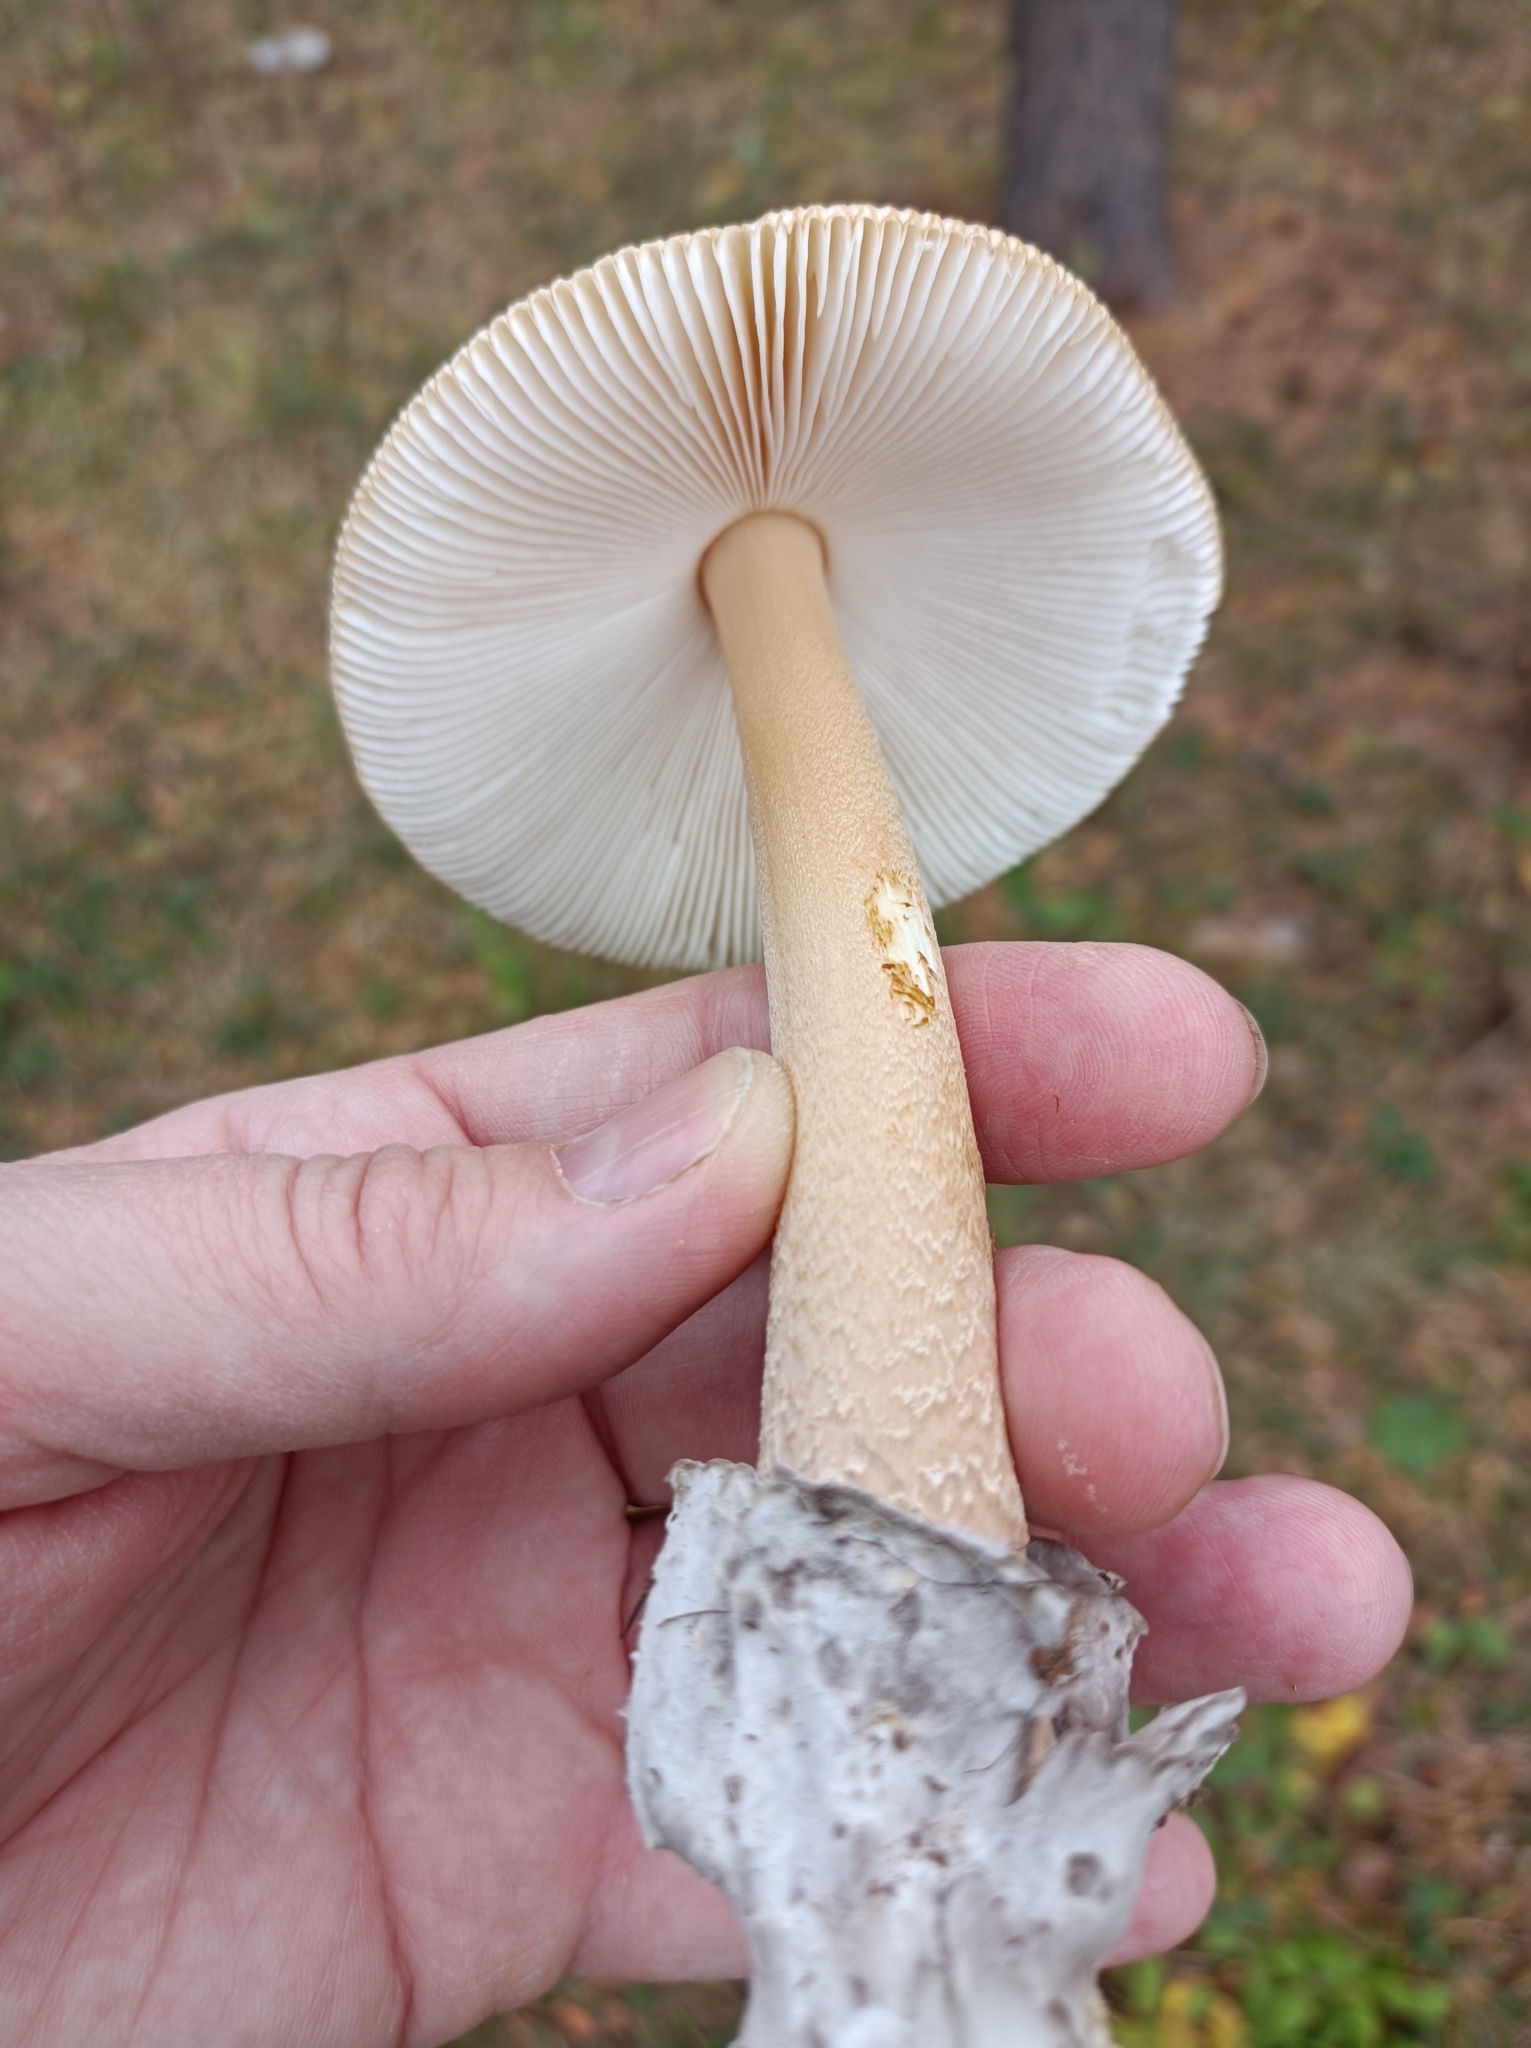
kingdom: Fungi
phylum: Basidiomycota
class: Agaricomycetes
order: Agaricales
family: Amanitaceae
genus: Amanita
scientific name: Amanita submembranacea
